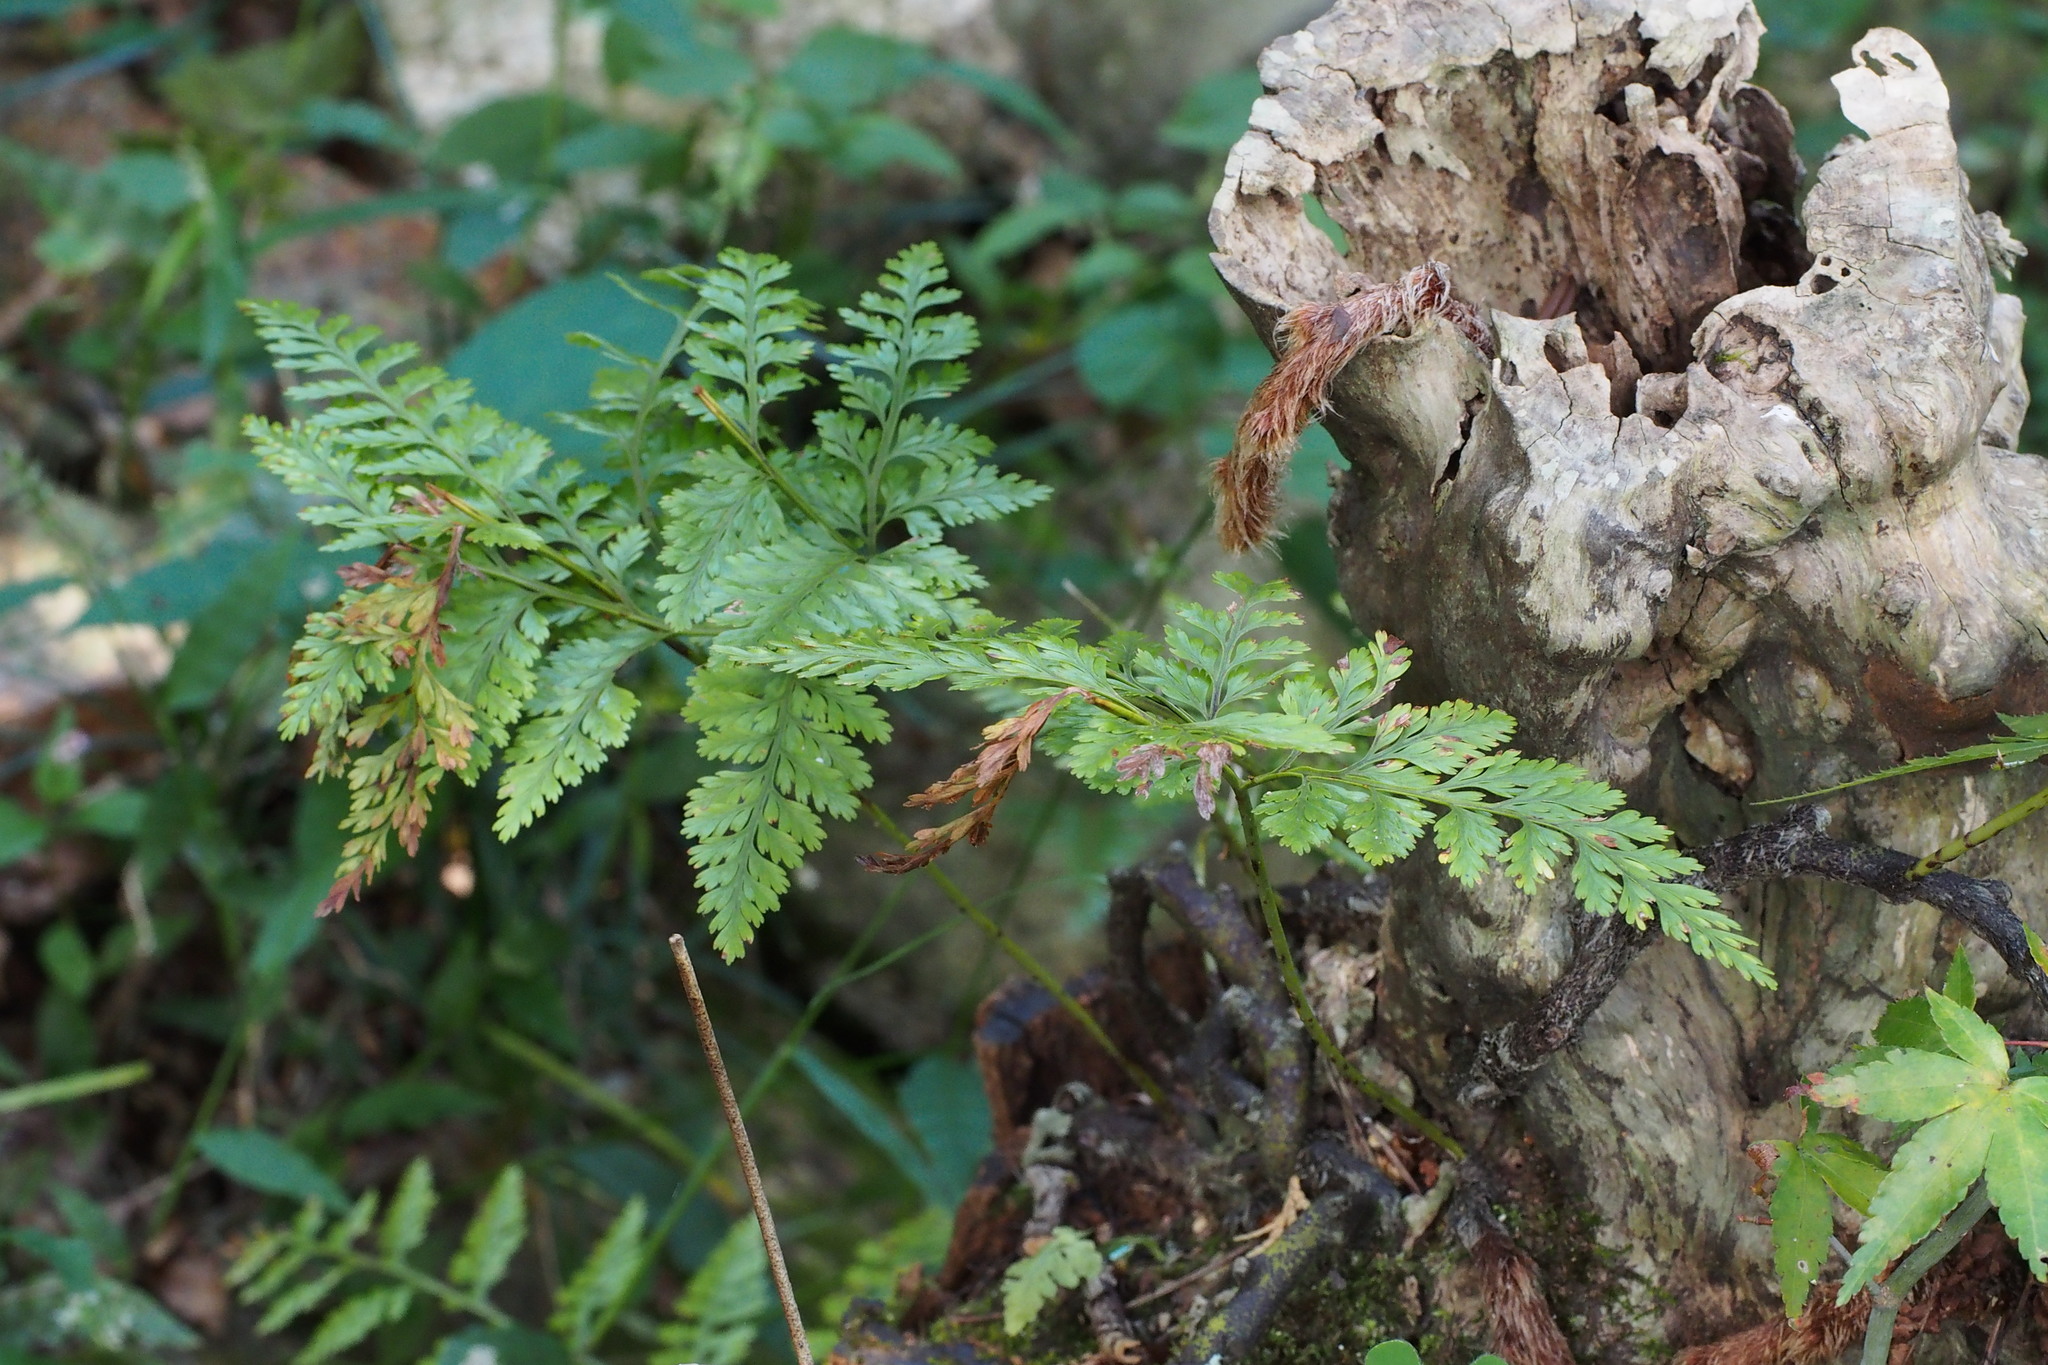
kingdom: Plantae
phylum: Tracheophyta
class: Polypodiopsida
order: Polypodiales
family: Davalliaceae
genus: Davallia
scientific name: Davallia mariesii
